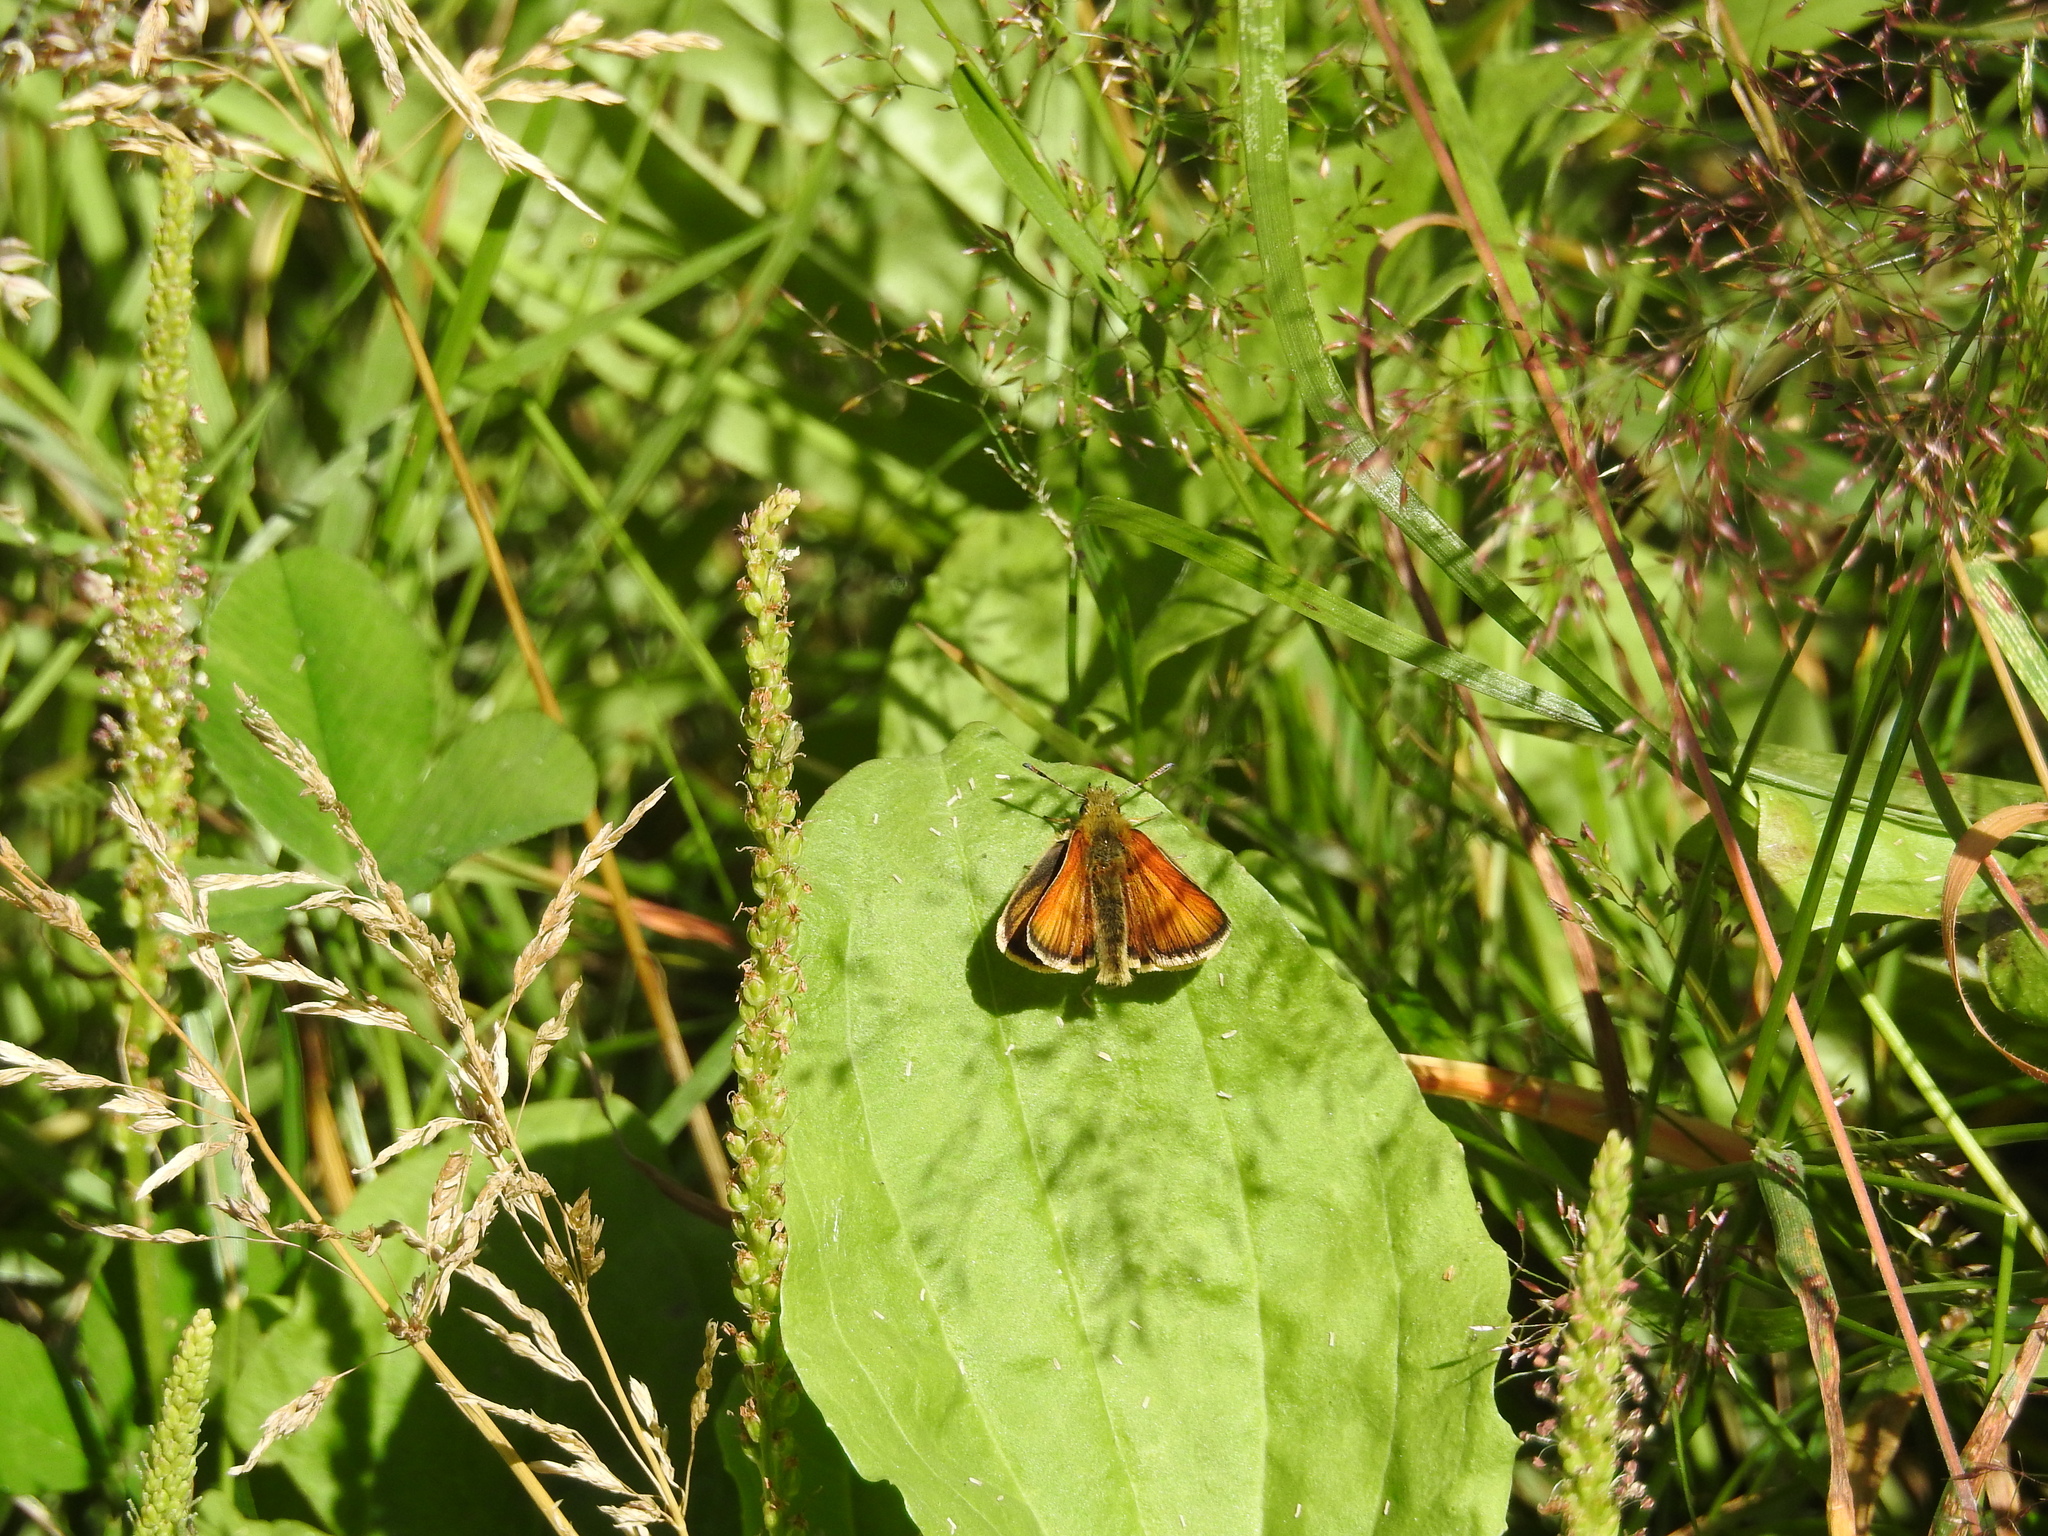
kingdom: Animalia
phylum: Arthropoda
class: Insecta
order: Lepidoptera
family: Hesperiidae
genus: Thymelicus
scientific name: Thymelicus lineola
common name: Essex skipper
